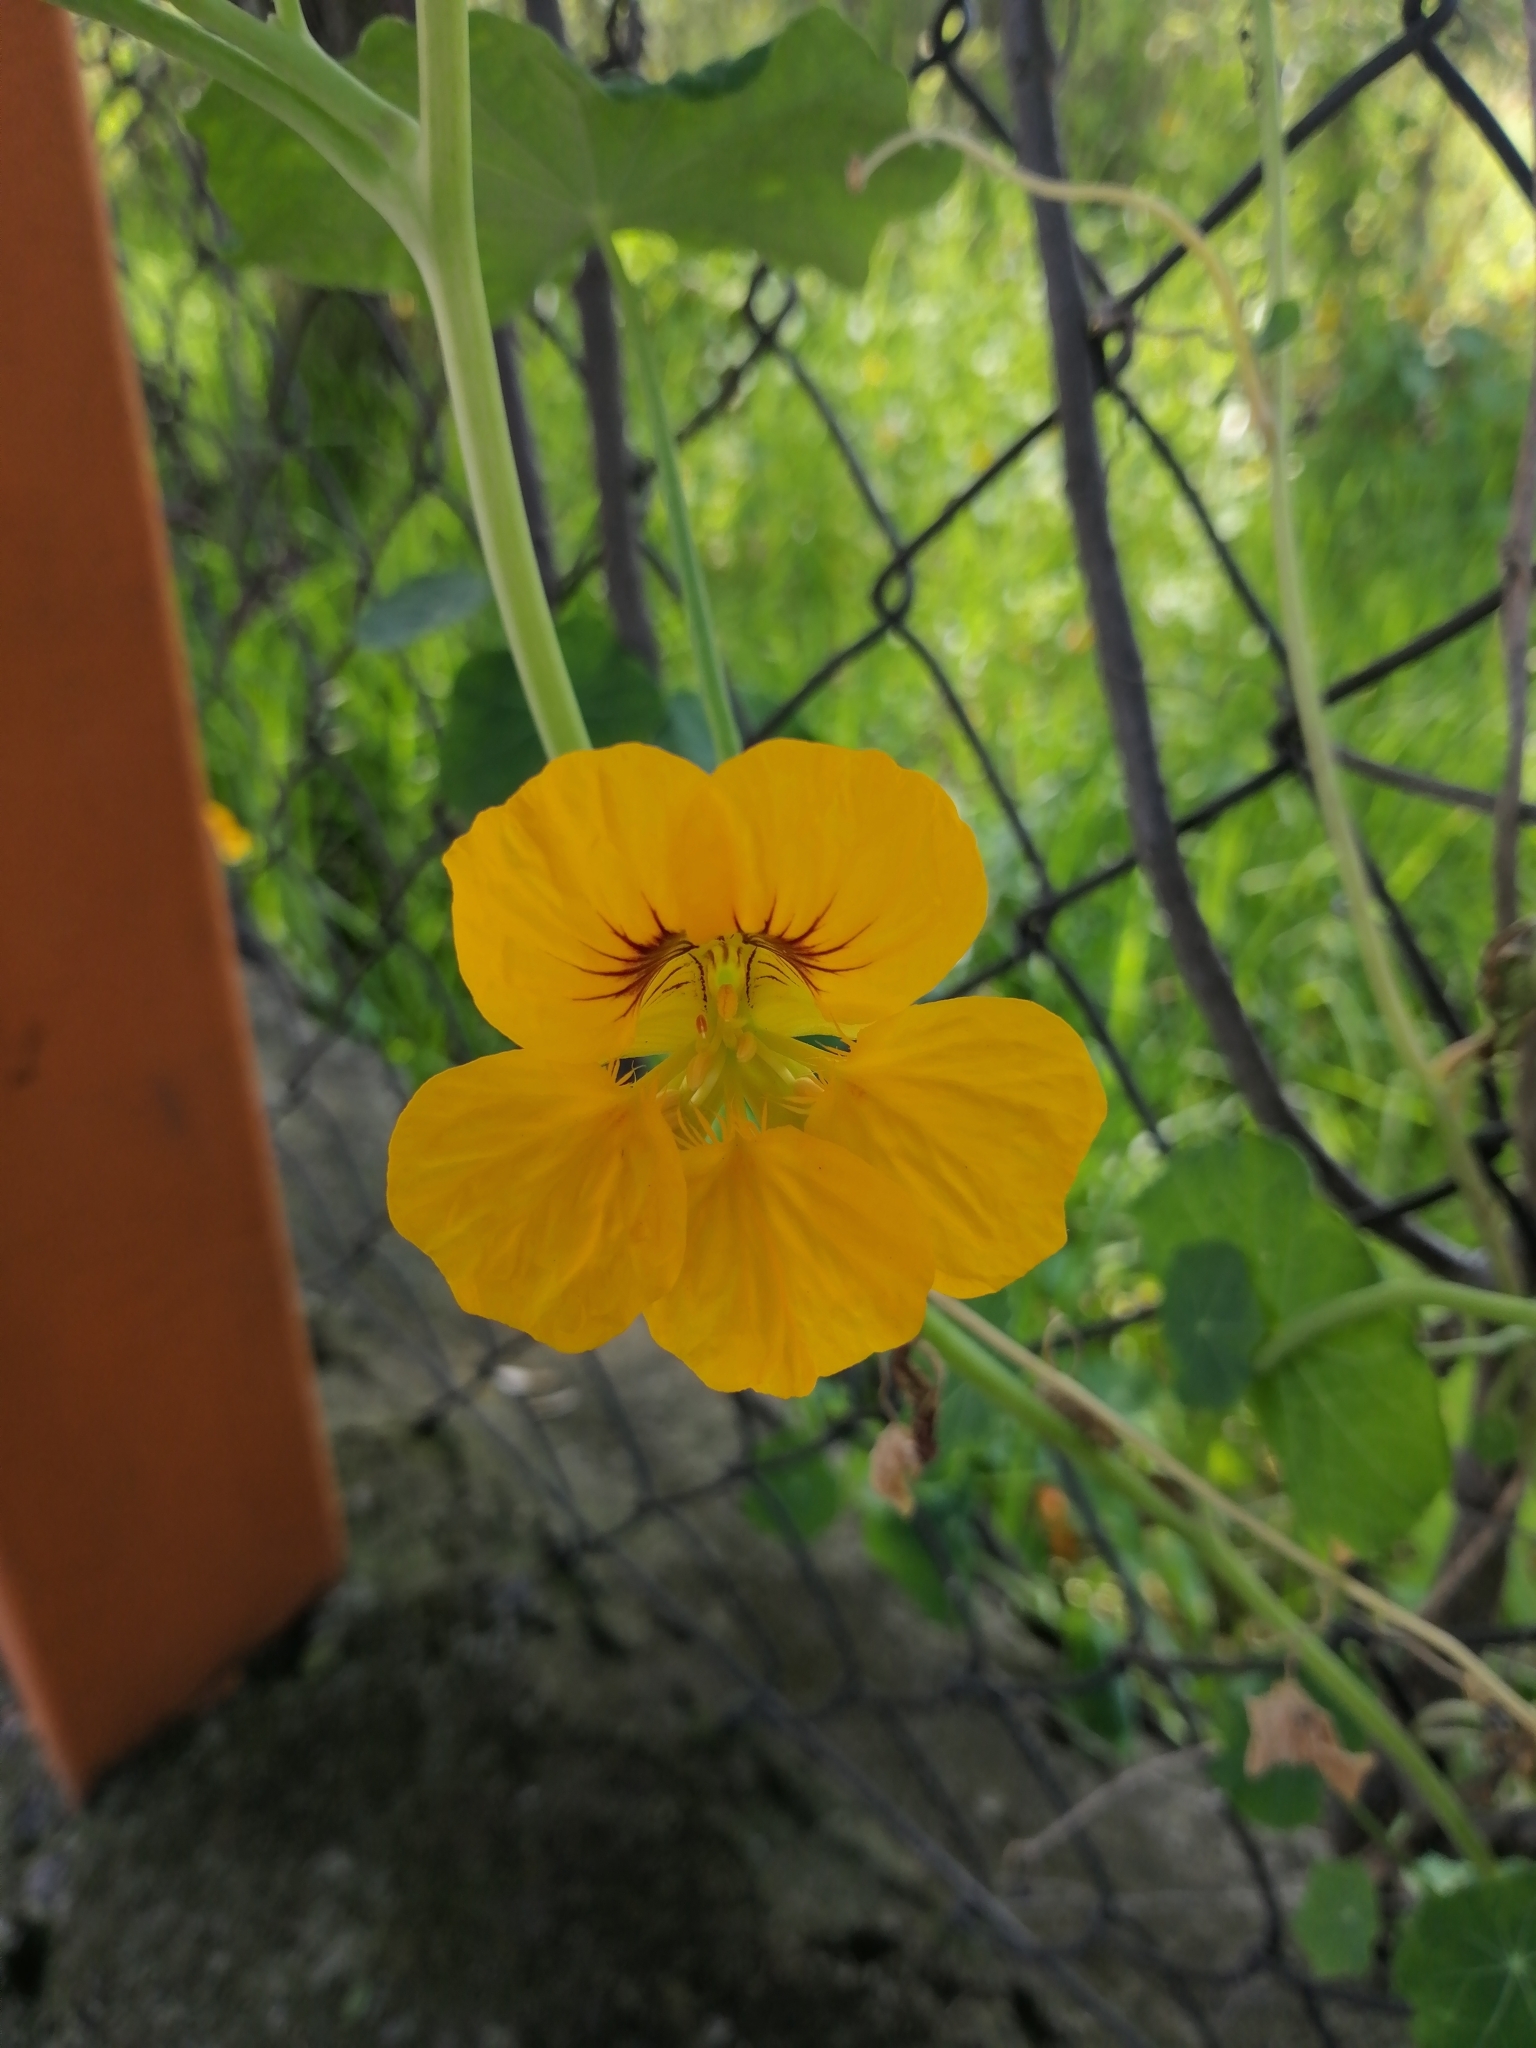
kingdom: Plantae
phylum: Tracheophyta
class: Magnoliopsida
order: Brassicales
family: Tropaeolaceae
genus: Tropaeolum
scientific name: Tropaeolum majus
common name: Nasturtium
